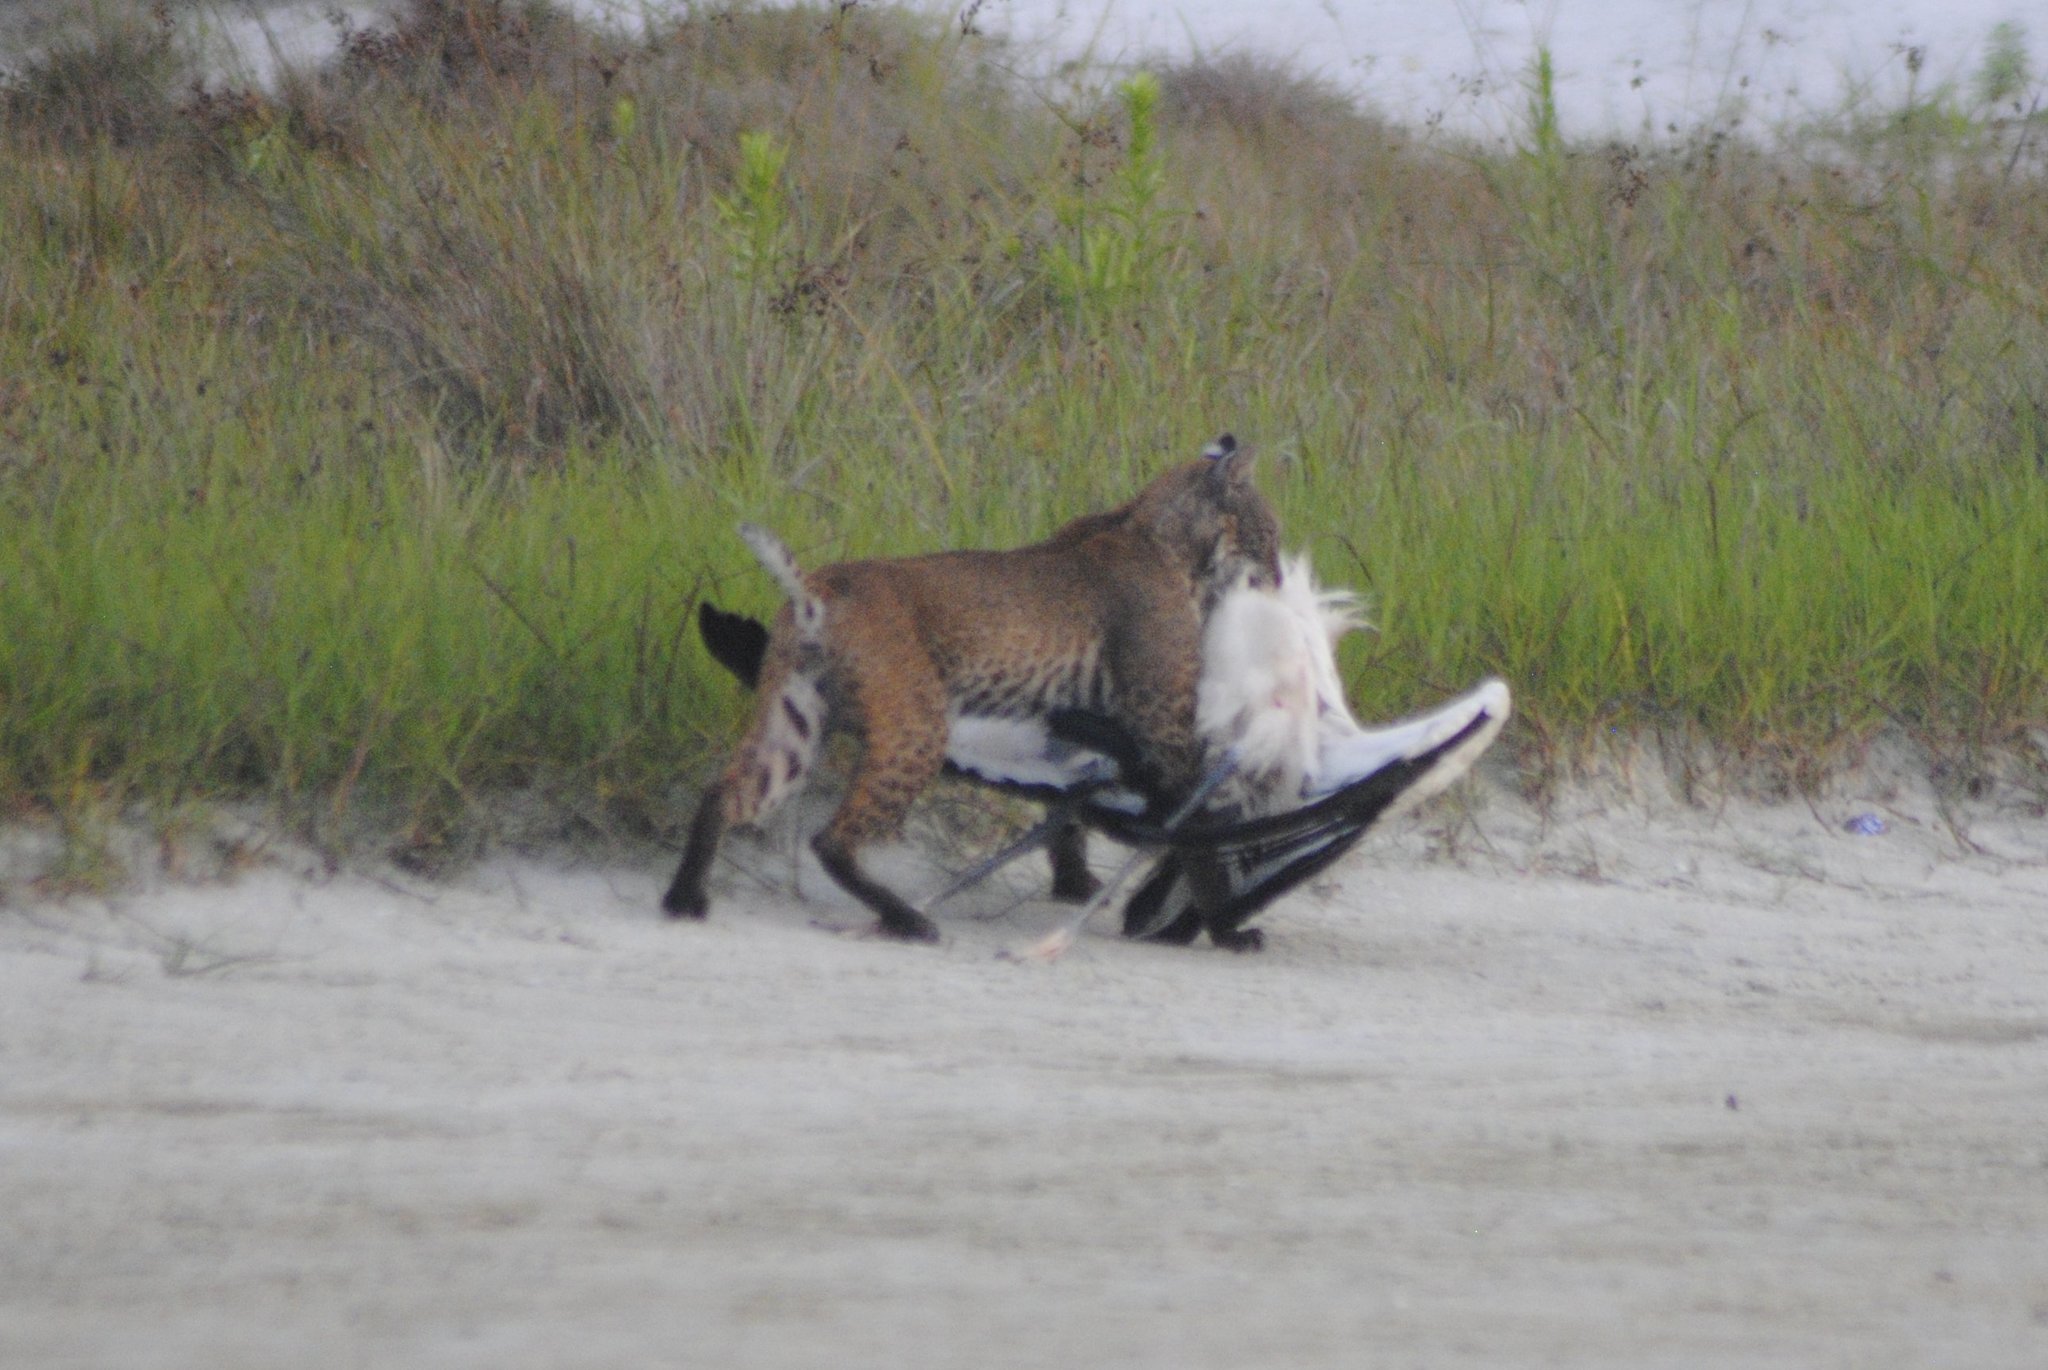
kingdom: Animalia
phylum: Chordata
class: Mammalia
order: Carnivora
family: Felidae
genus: Lynx
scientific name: Lynx rufus
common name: Bobcat
